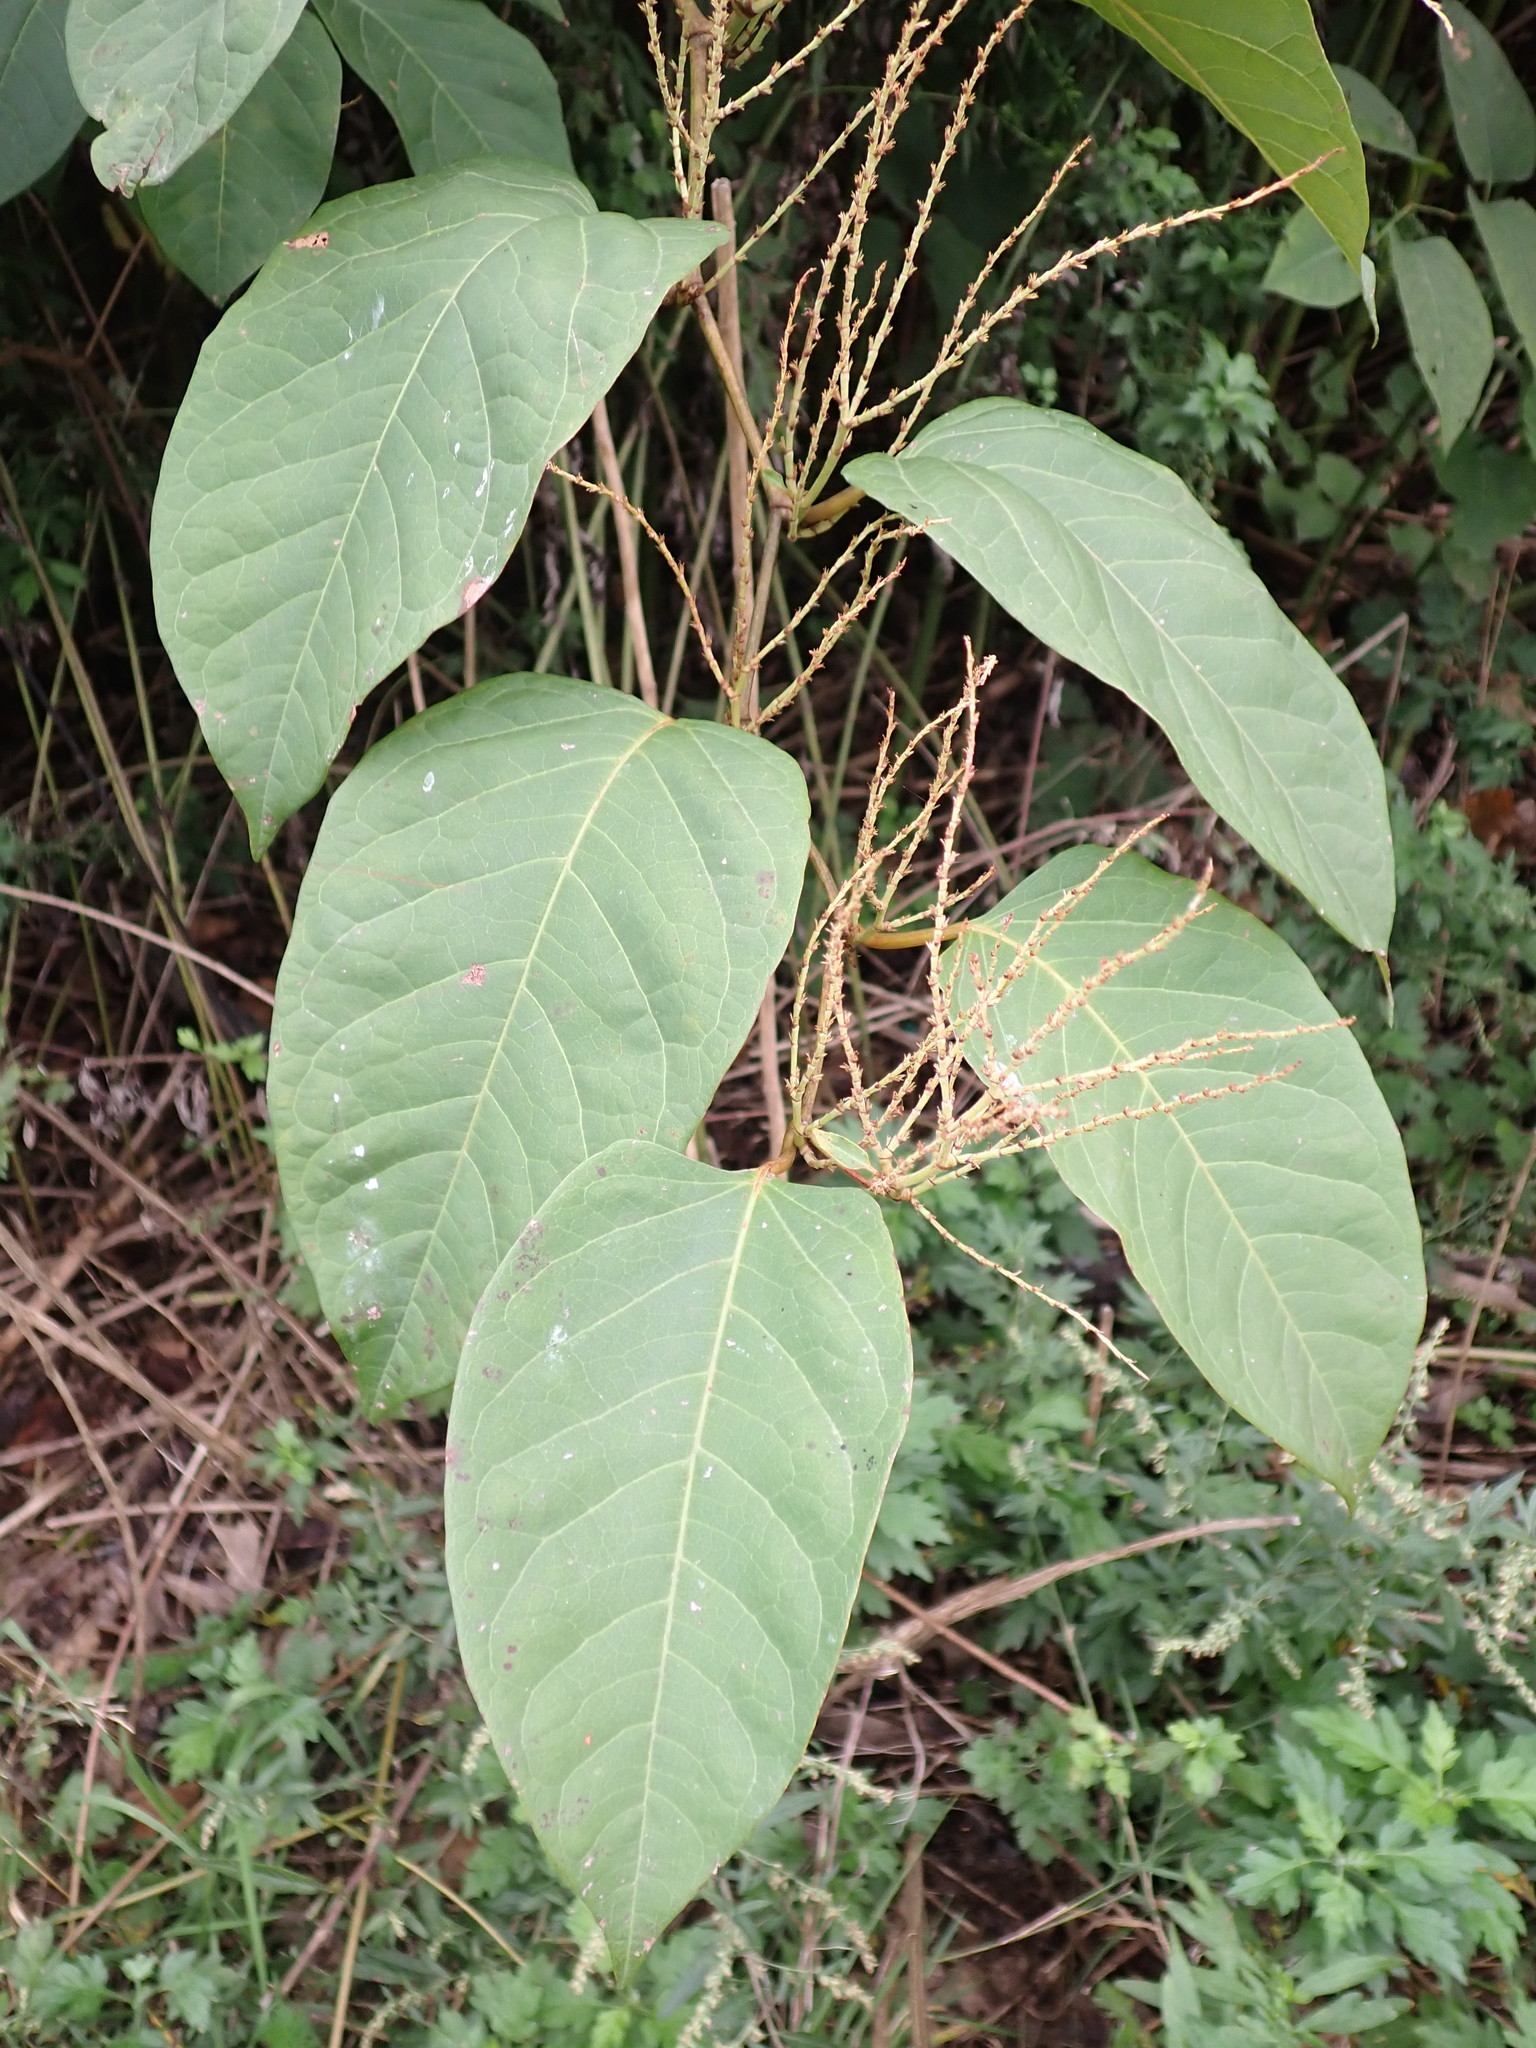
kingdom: Plantae
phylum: Tracheophyta
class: Magnoliopsida
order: Caryophyllales
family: Polygonaceae
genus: Reynoutria
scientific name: Reynoutria japonica
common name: Japanese knotweed
